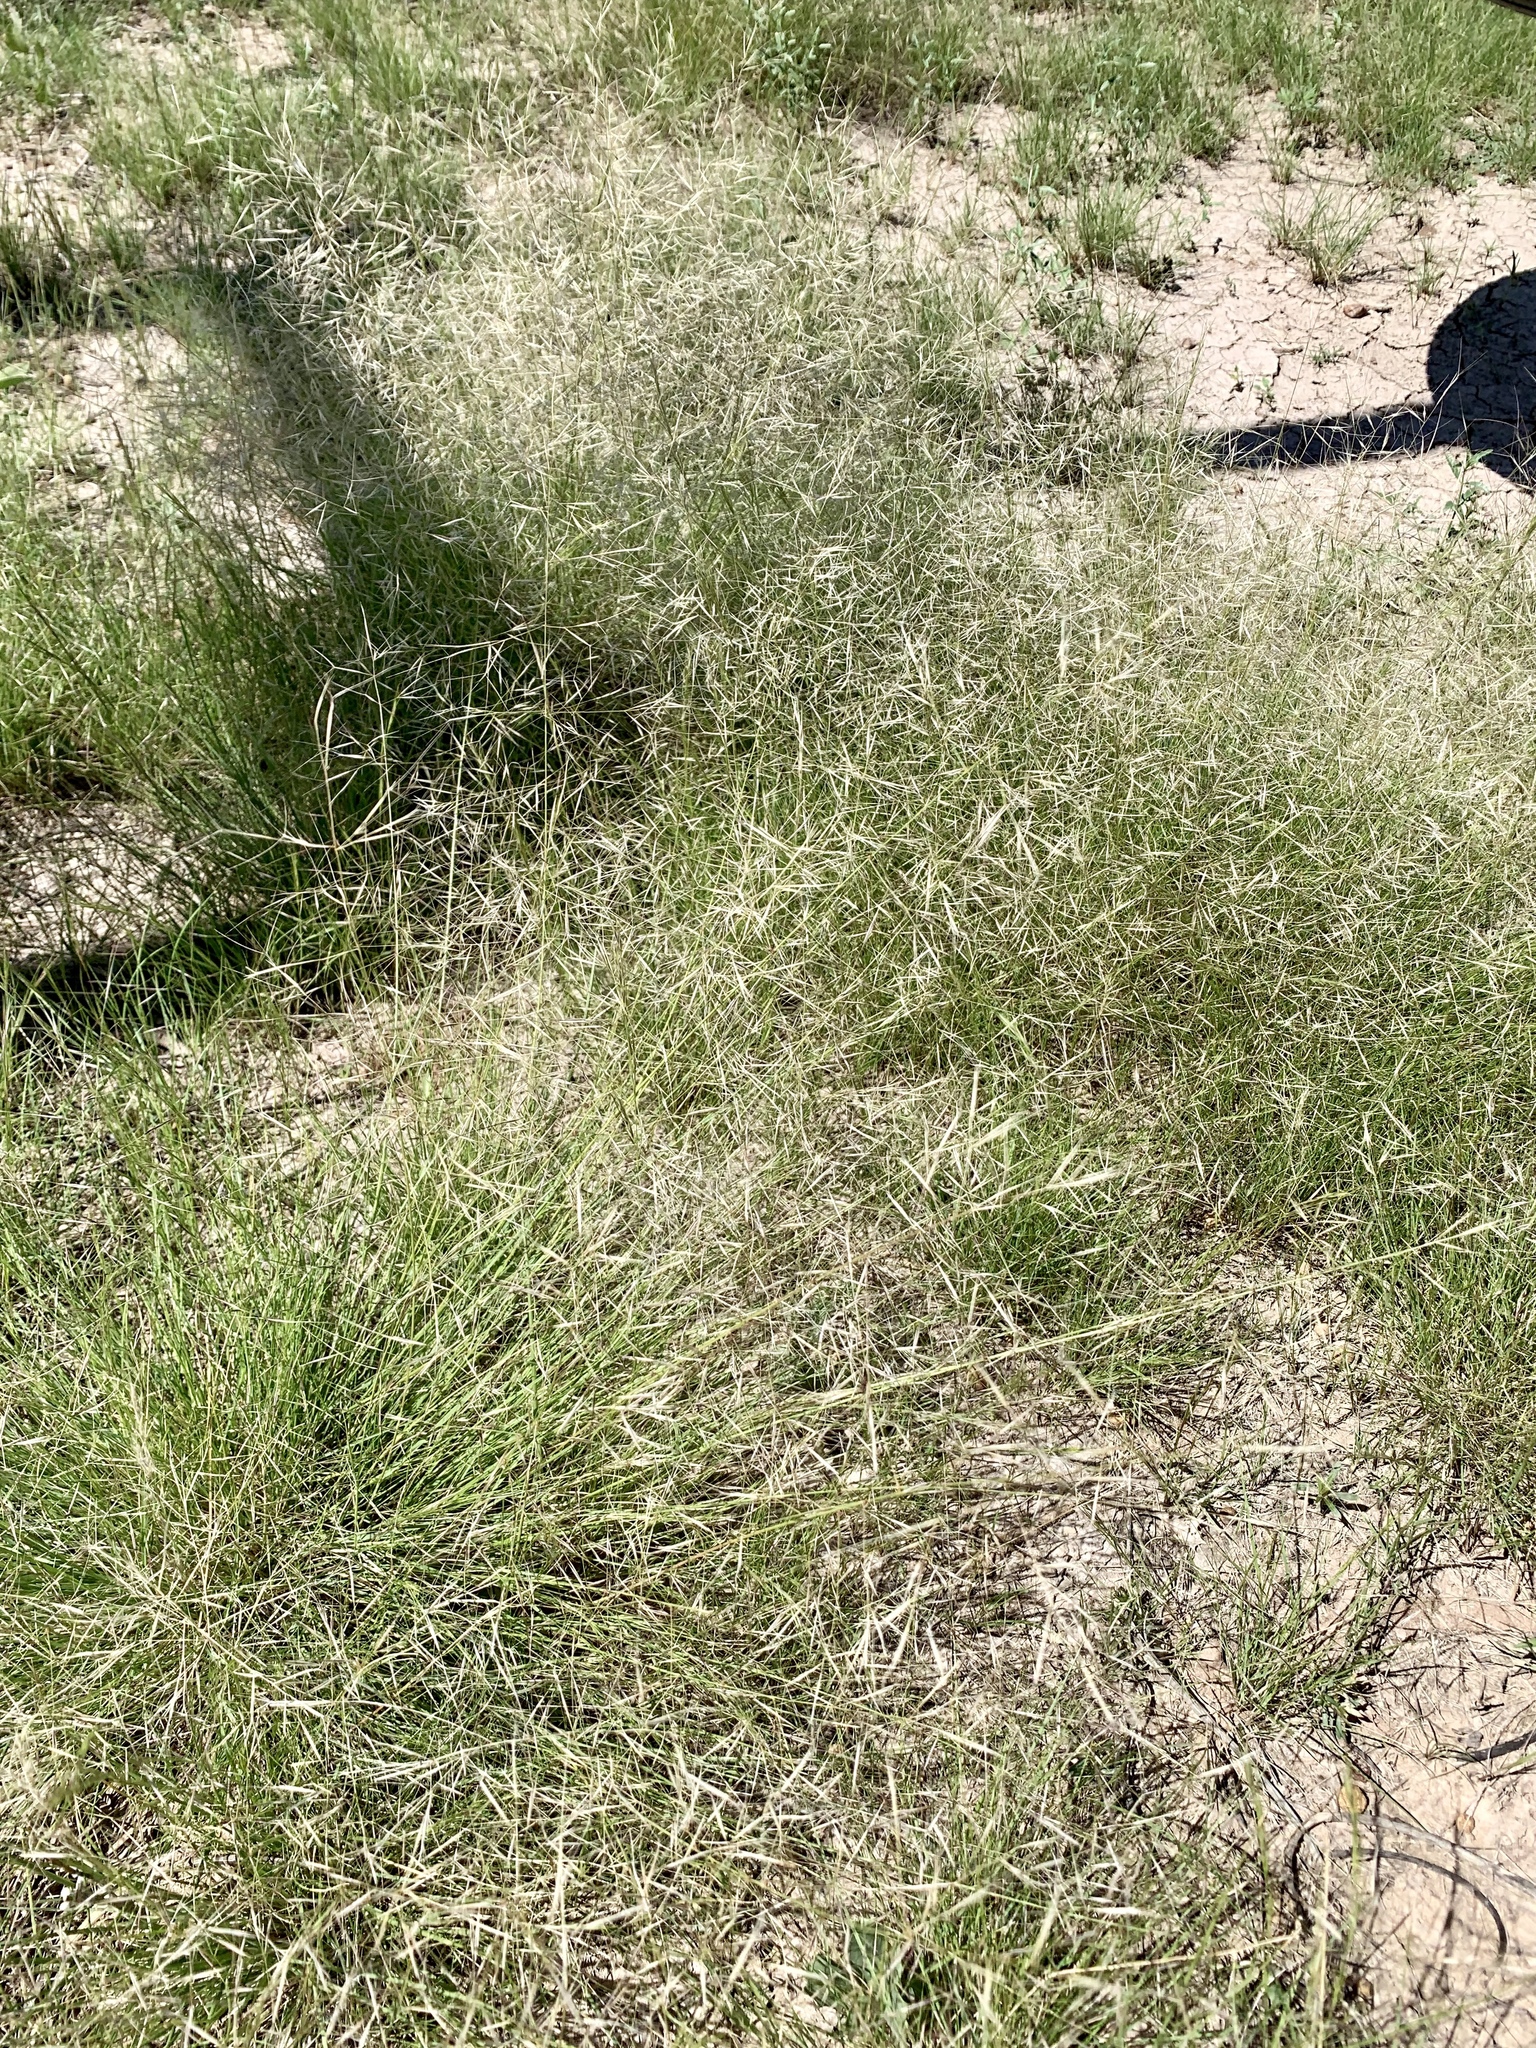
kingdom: Plantae
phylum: Tracheophyta
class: Liliopsida
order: Poales
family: Poaceae
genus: Aristida
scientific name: Aristida havardii
